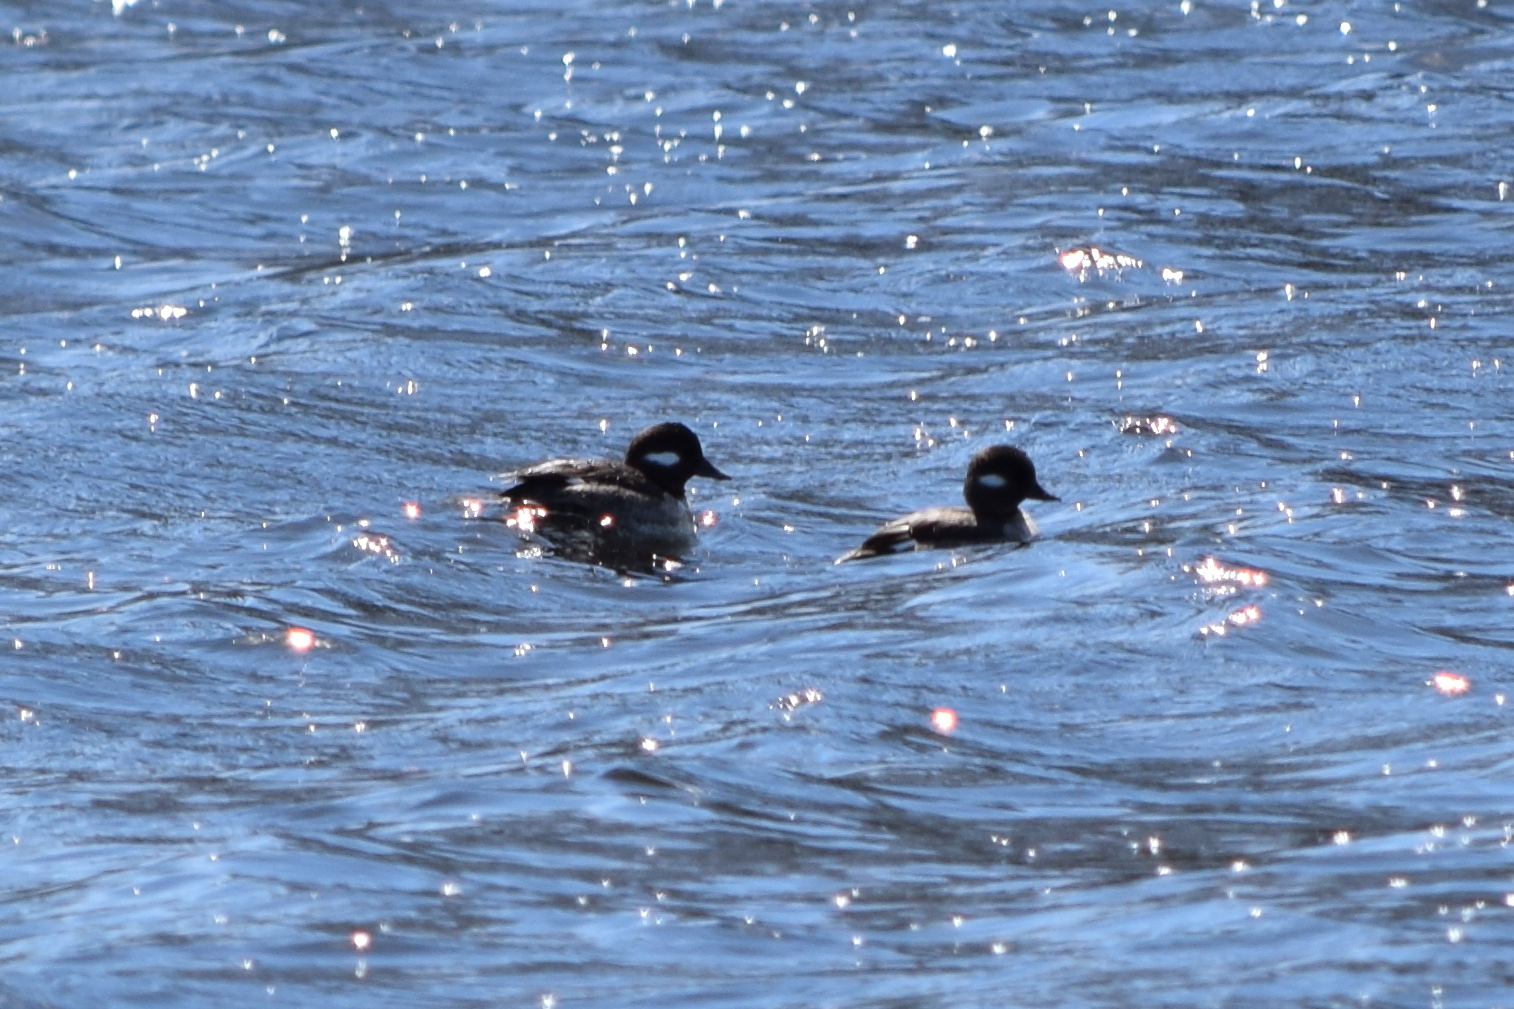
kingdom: Animalia
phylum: Chordata
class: Aves
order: Anseriformes
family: Anatidae
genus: Bucephala
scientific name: Bucephala albeola
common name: Bufflehead
